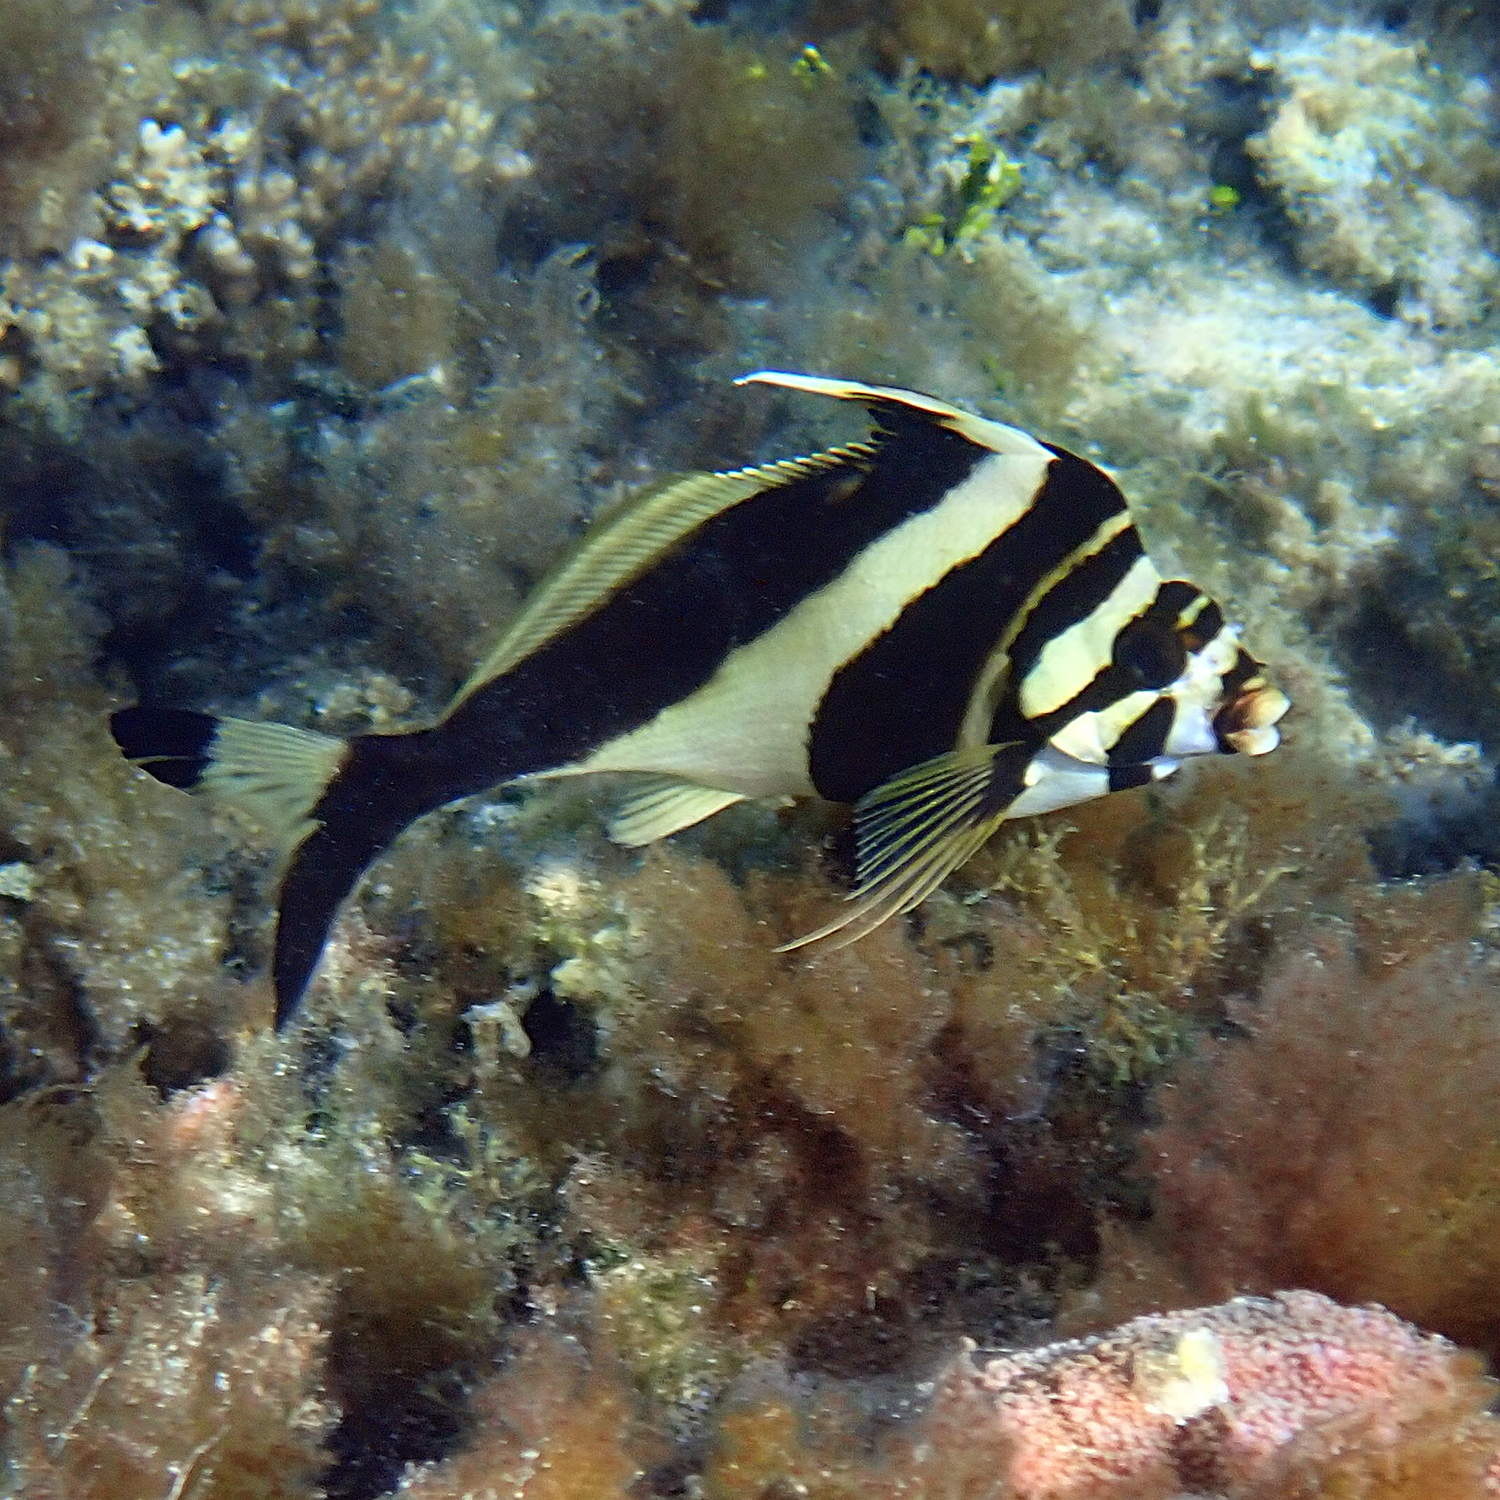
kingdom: Animalia
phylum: Chordata
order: Perciformes
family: Cheilodactylidae
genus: Cheilodactylus
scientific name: Cheilodactylus francisi
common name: Blacktip morwong
